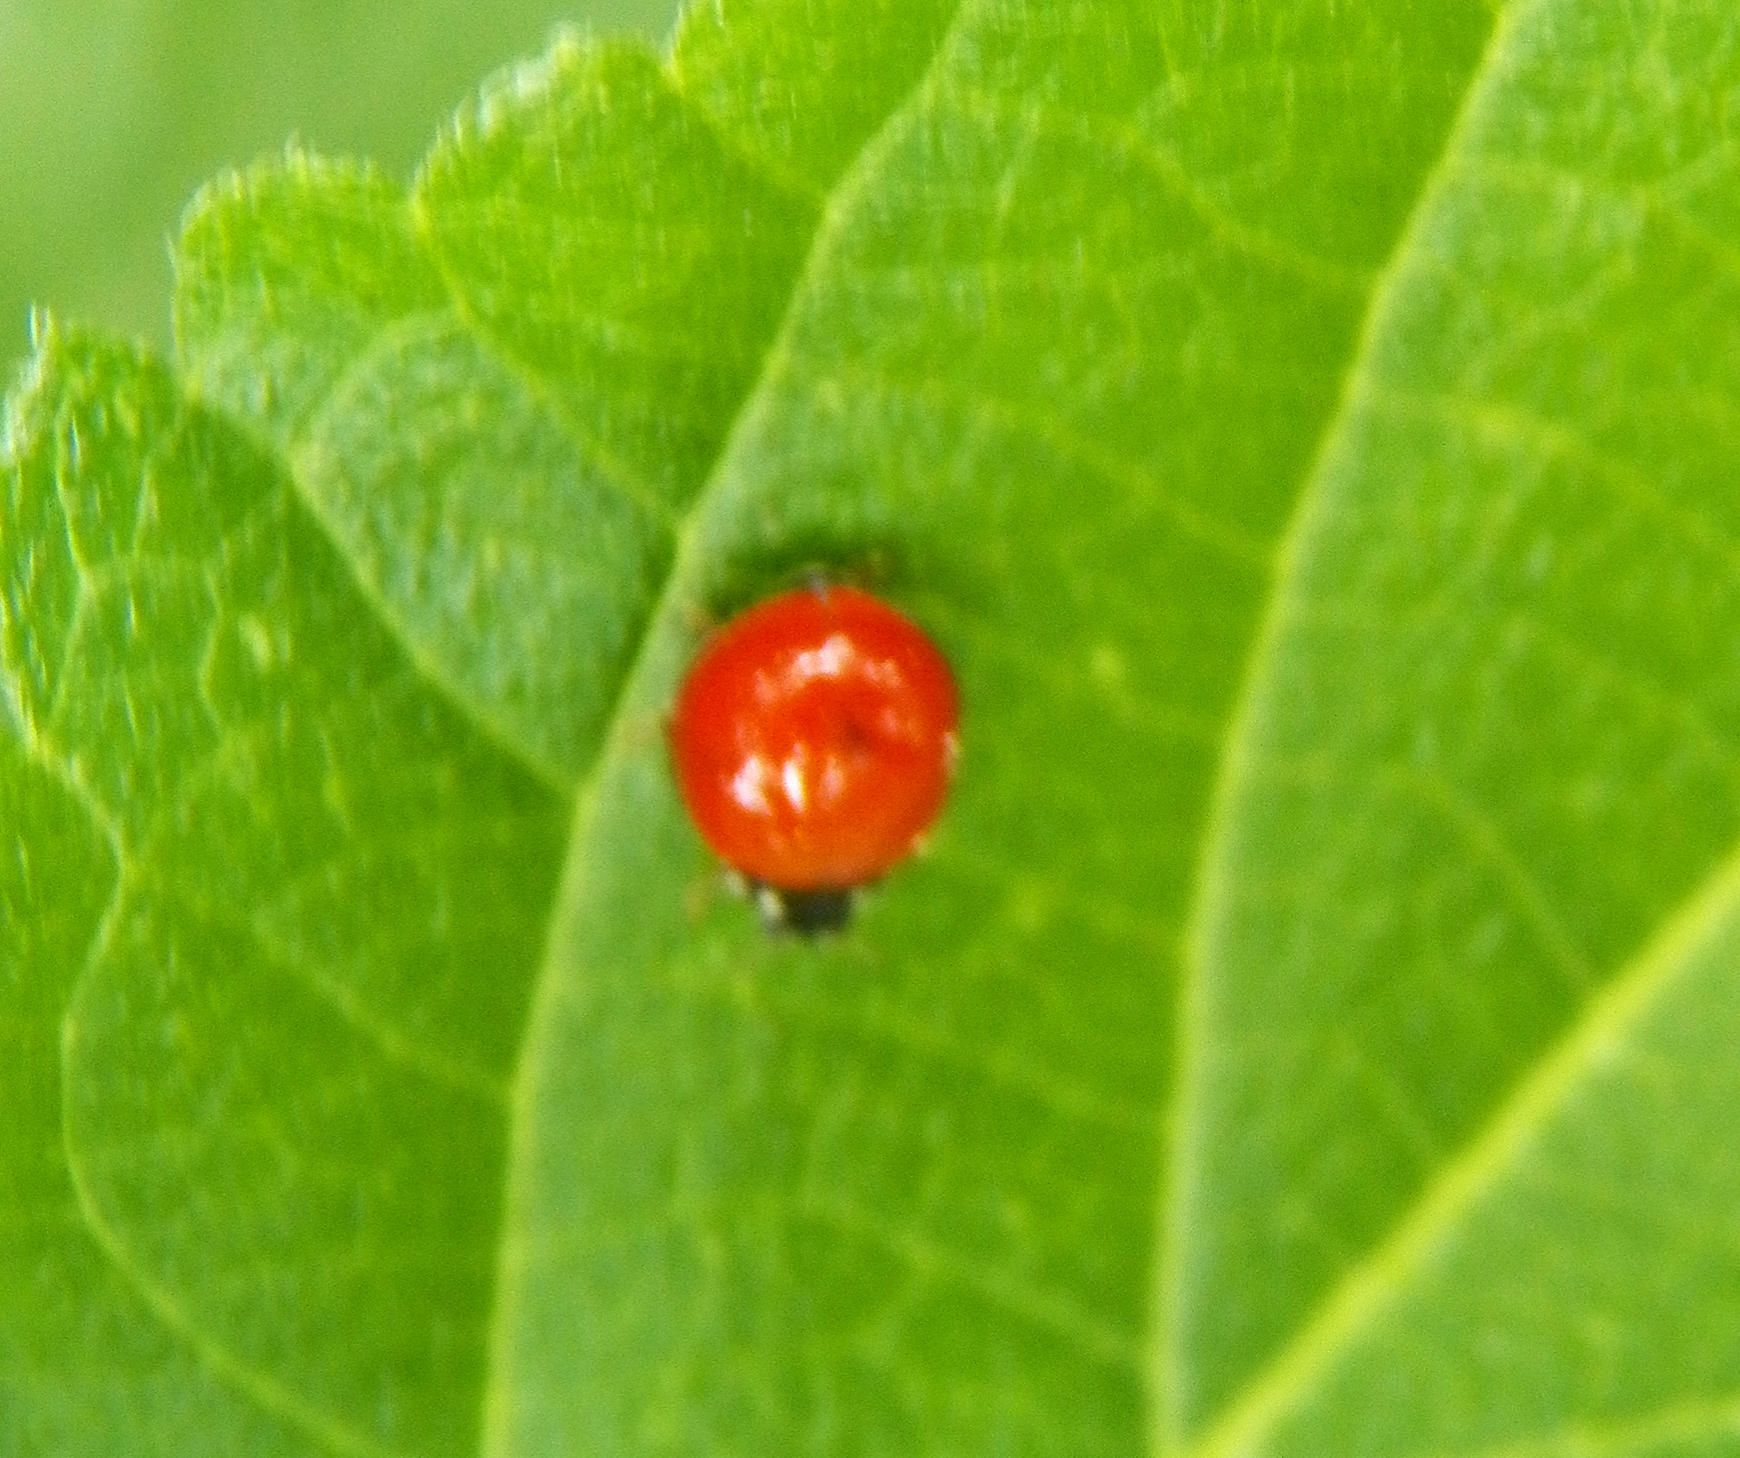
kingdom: Animalia
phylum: Arthropoda
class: Insecta
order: Coleoptera
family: Coccinellidae
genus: Cycloneda
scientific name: Cycloneda sanguinea
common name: Ladybird beetle
